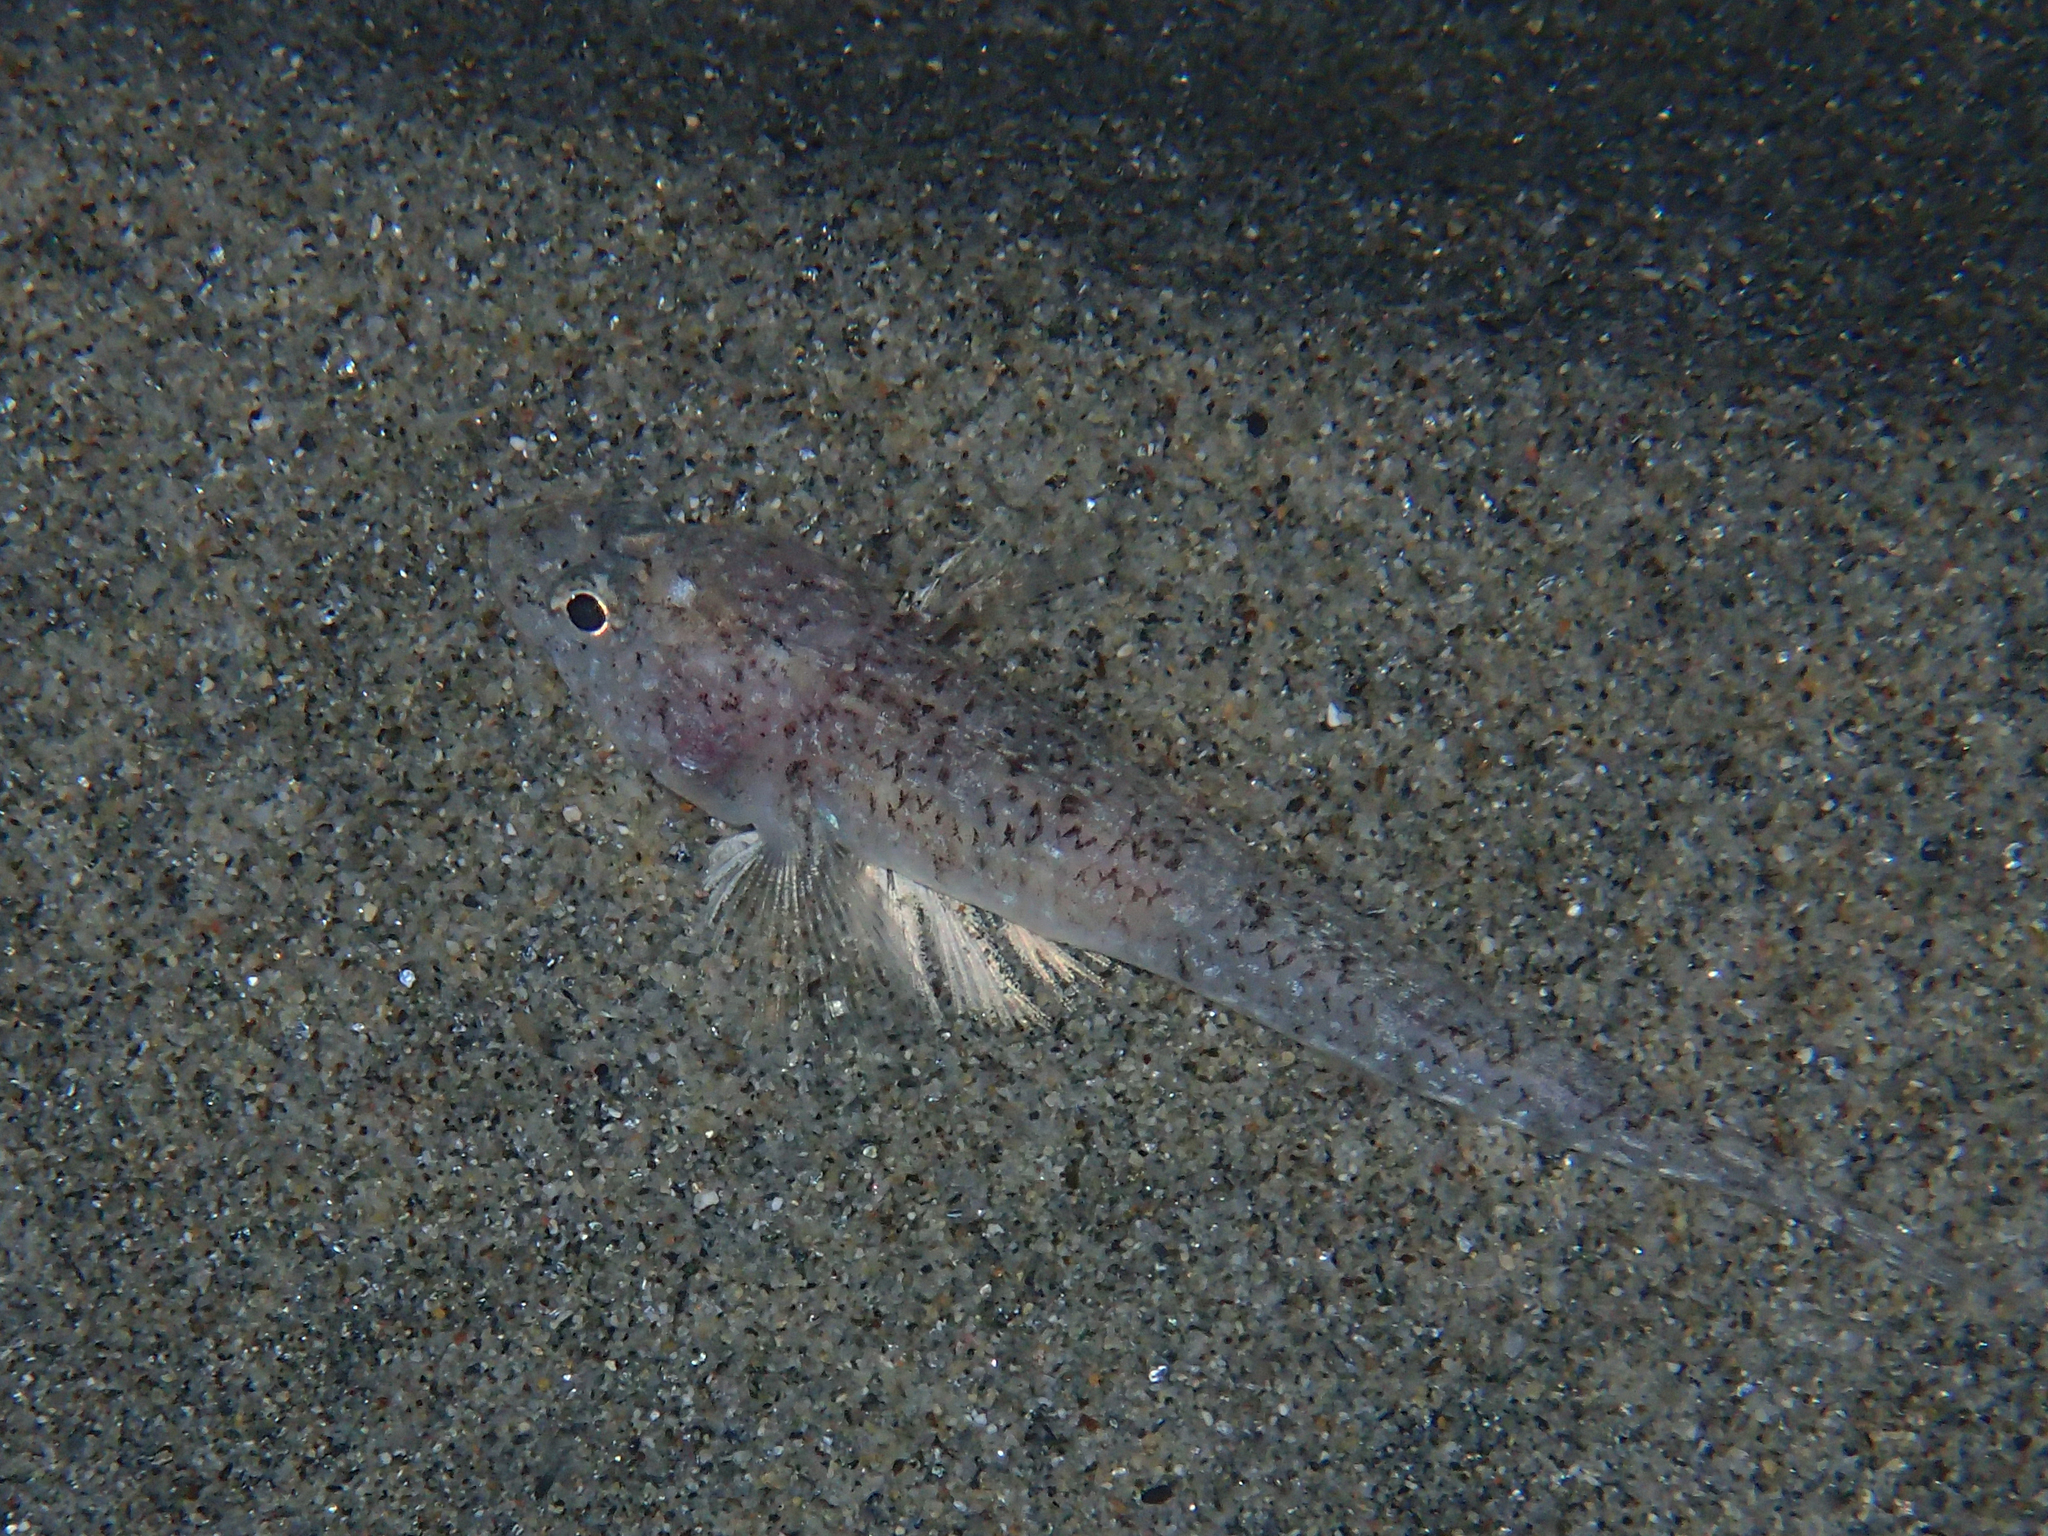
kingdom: Animalia
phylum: Chordata
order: Perciformes
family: Gobiidae
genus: Pomatoschistus
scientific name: Pomatoschistus marmoratus
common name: Marbled goby
